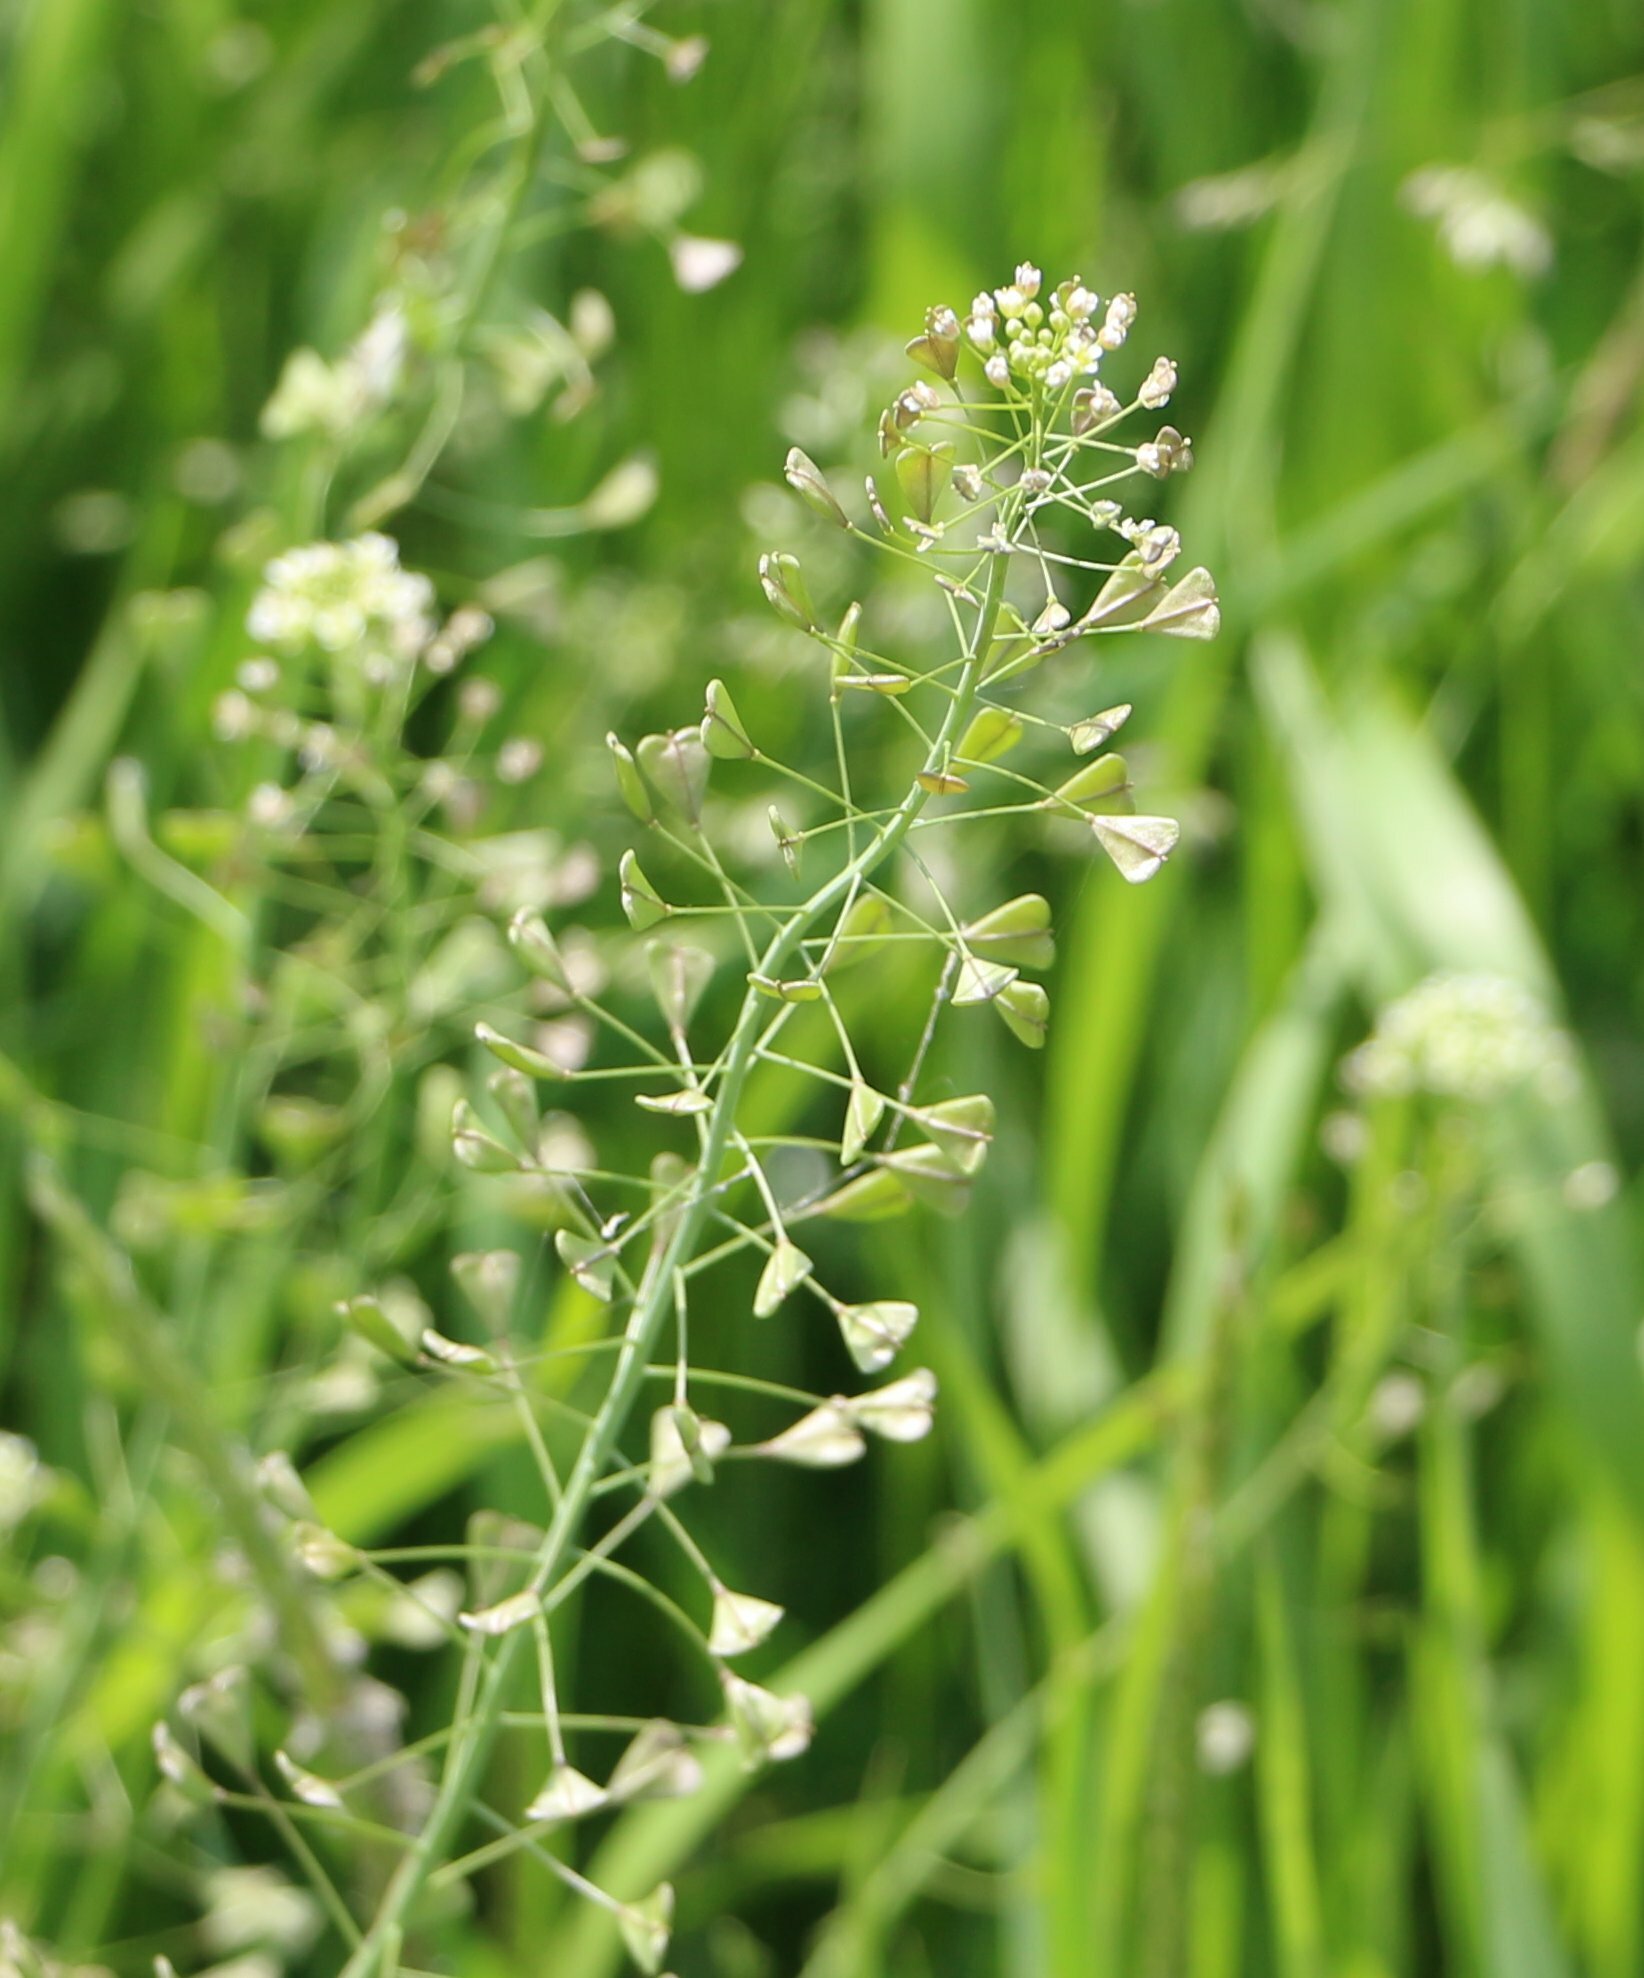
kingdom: Plantae
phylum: Tracheophyta
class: Magnoliopsida
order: Brassicales
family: Brassicaceae
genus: Capsella
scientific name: Capsella bursa-pastoris
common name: Shepherd's purse
